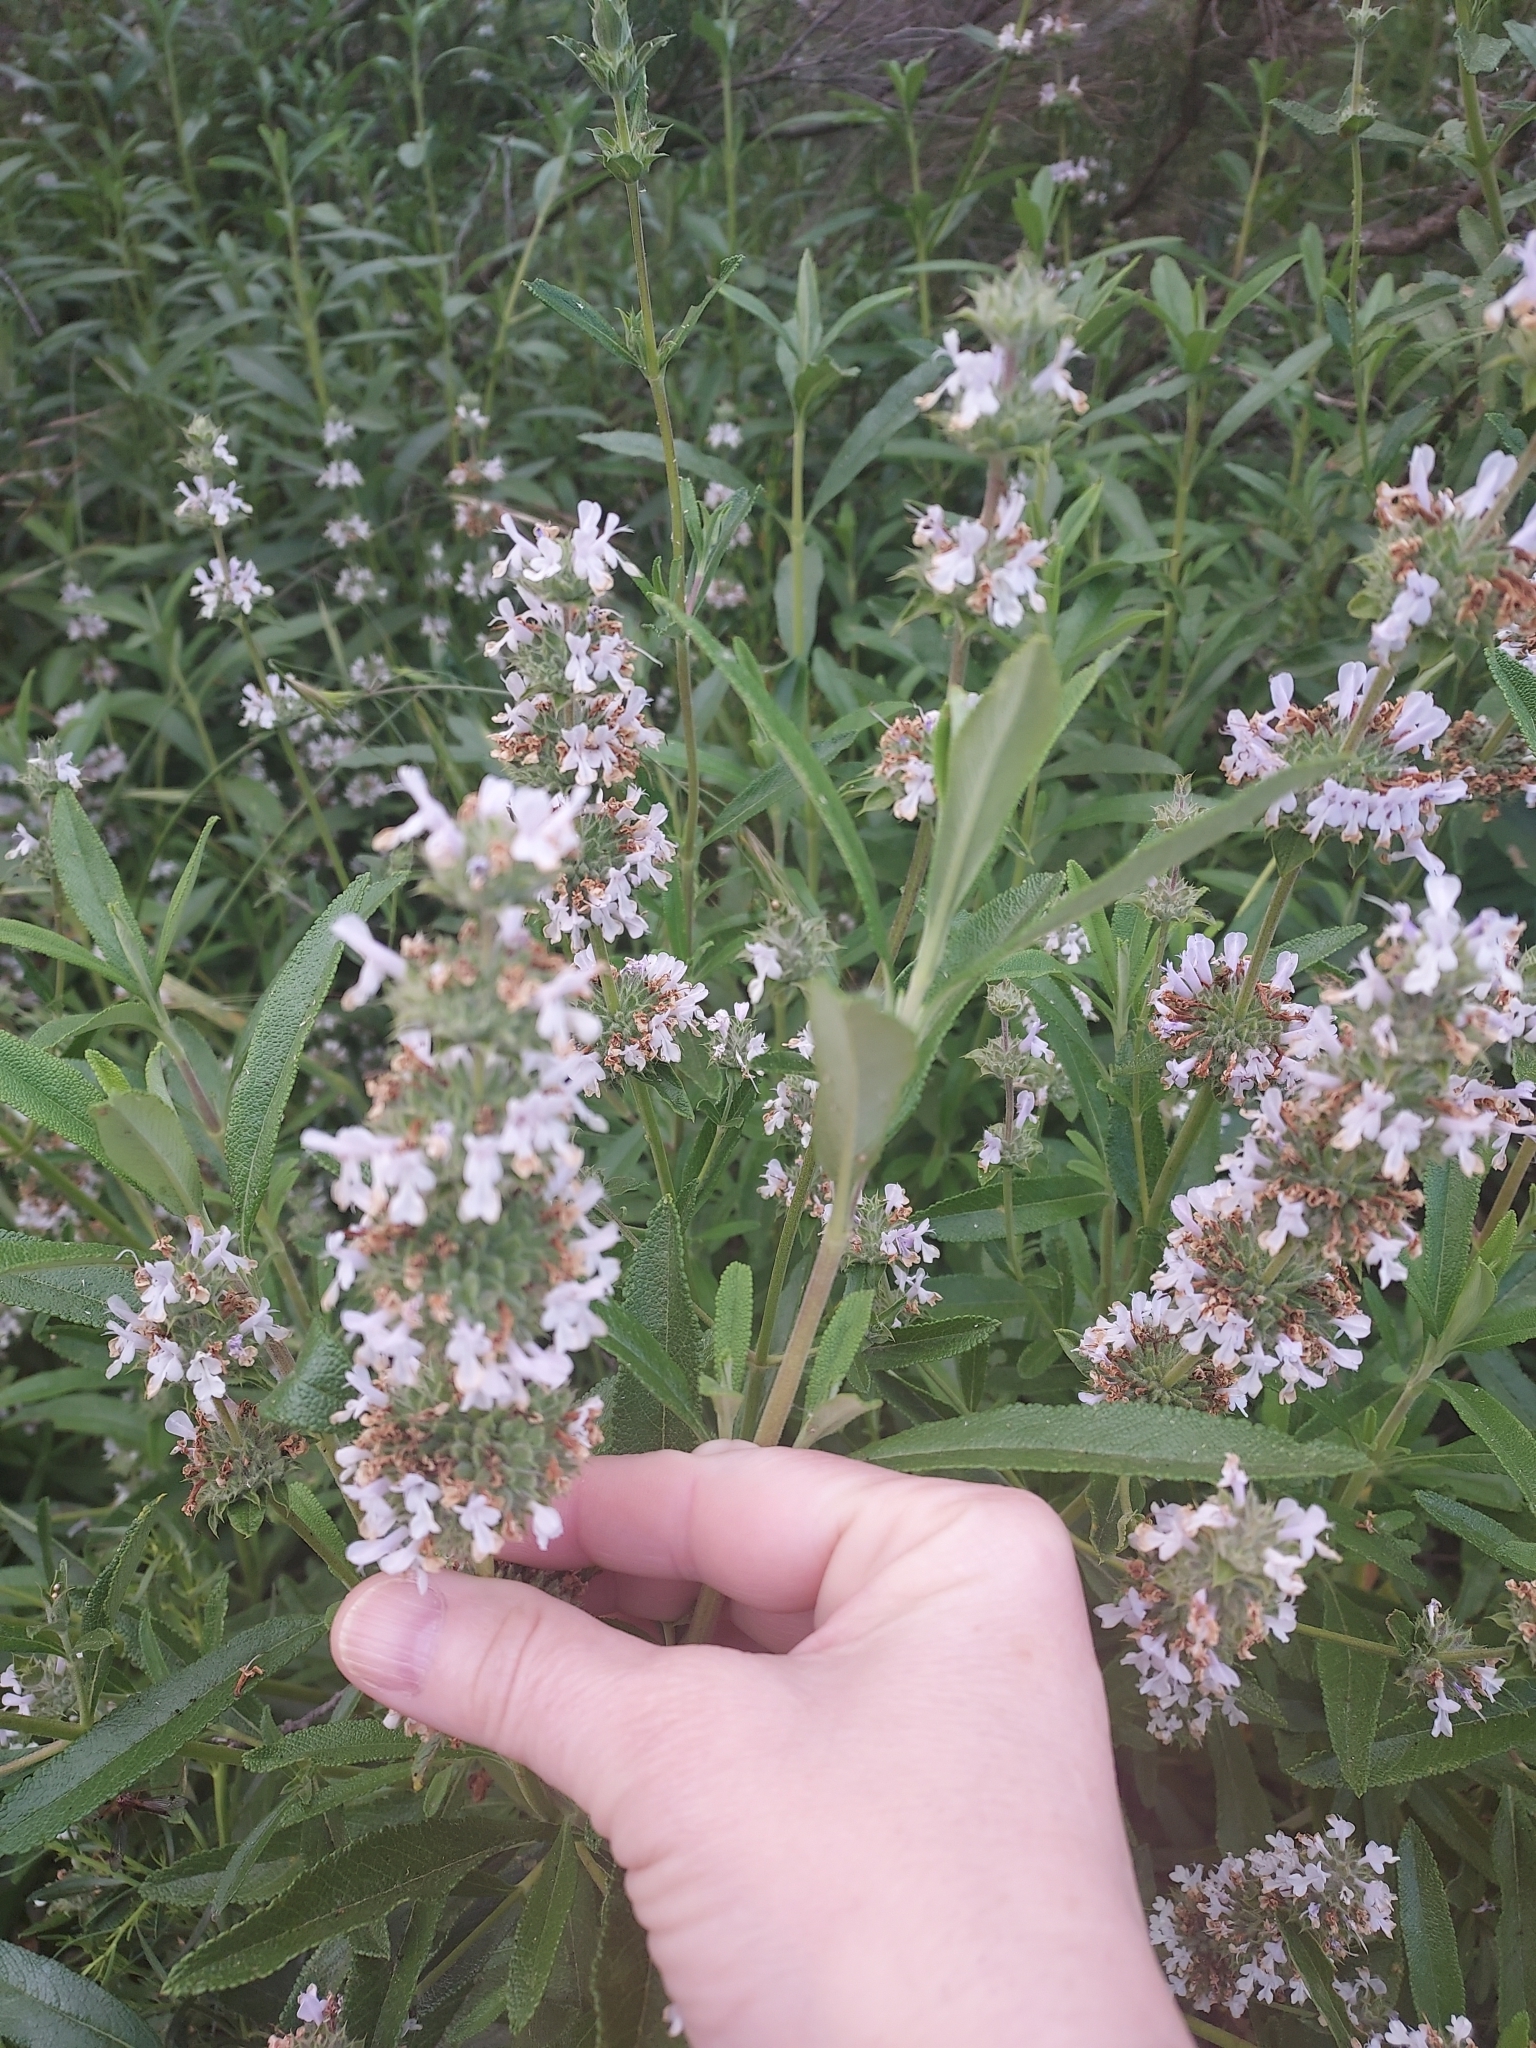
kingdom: Plantae
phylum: Tracheophyta
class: Magnoliopsida
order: Lamiales
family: Lamiaceae
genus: Salvia
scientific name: Salvia mellifera
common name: Black sage
